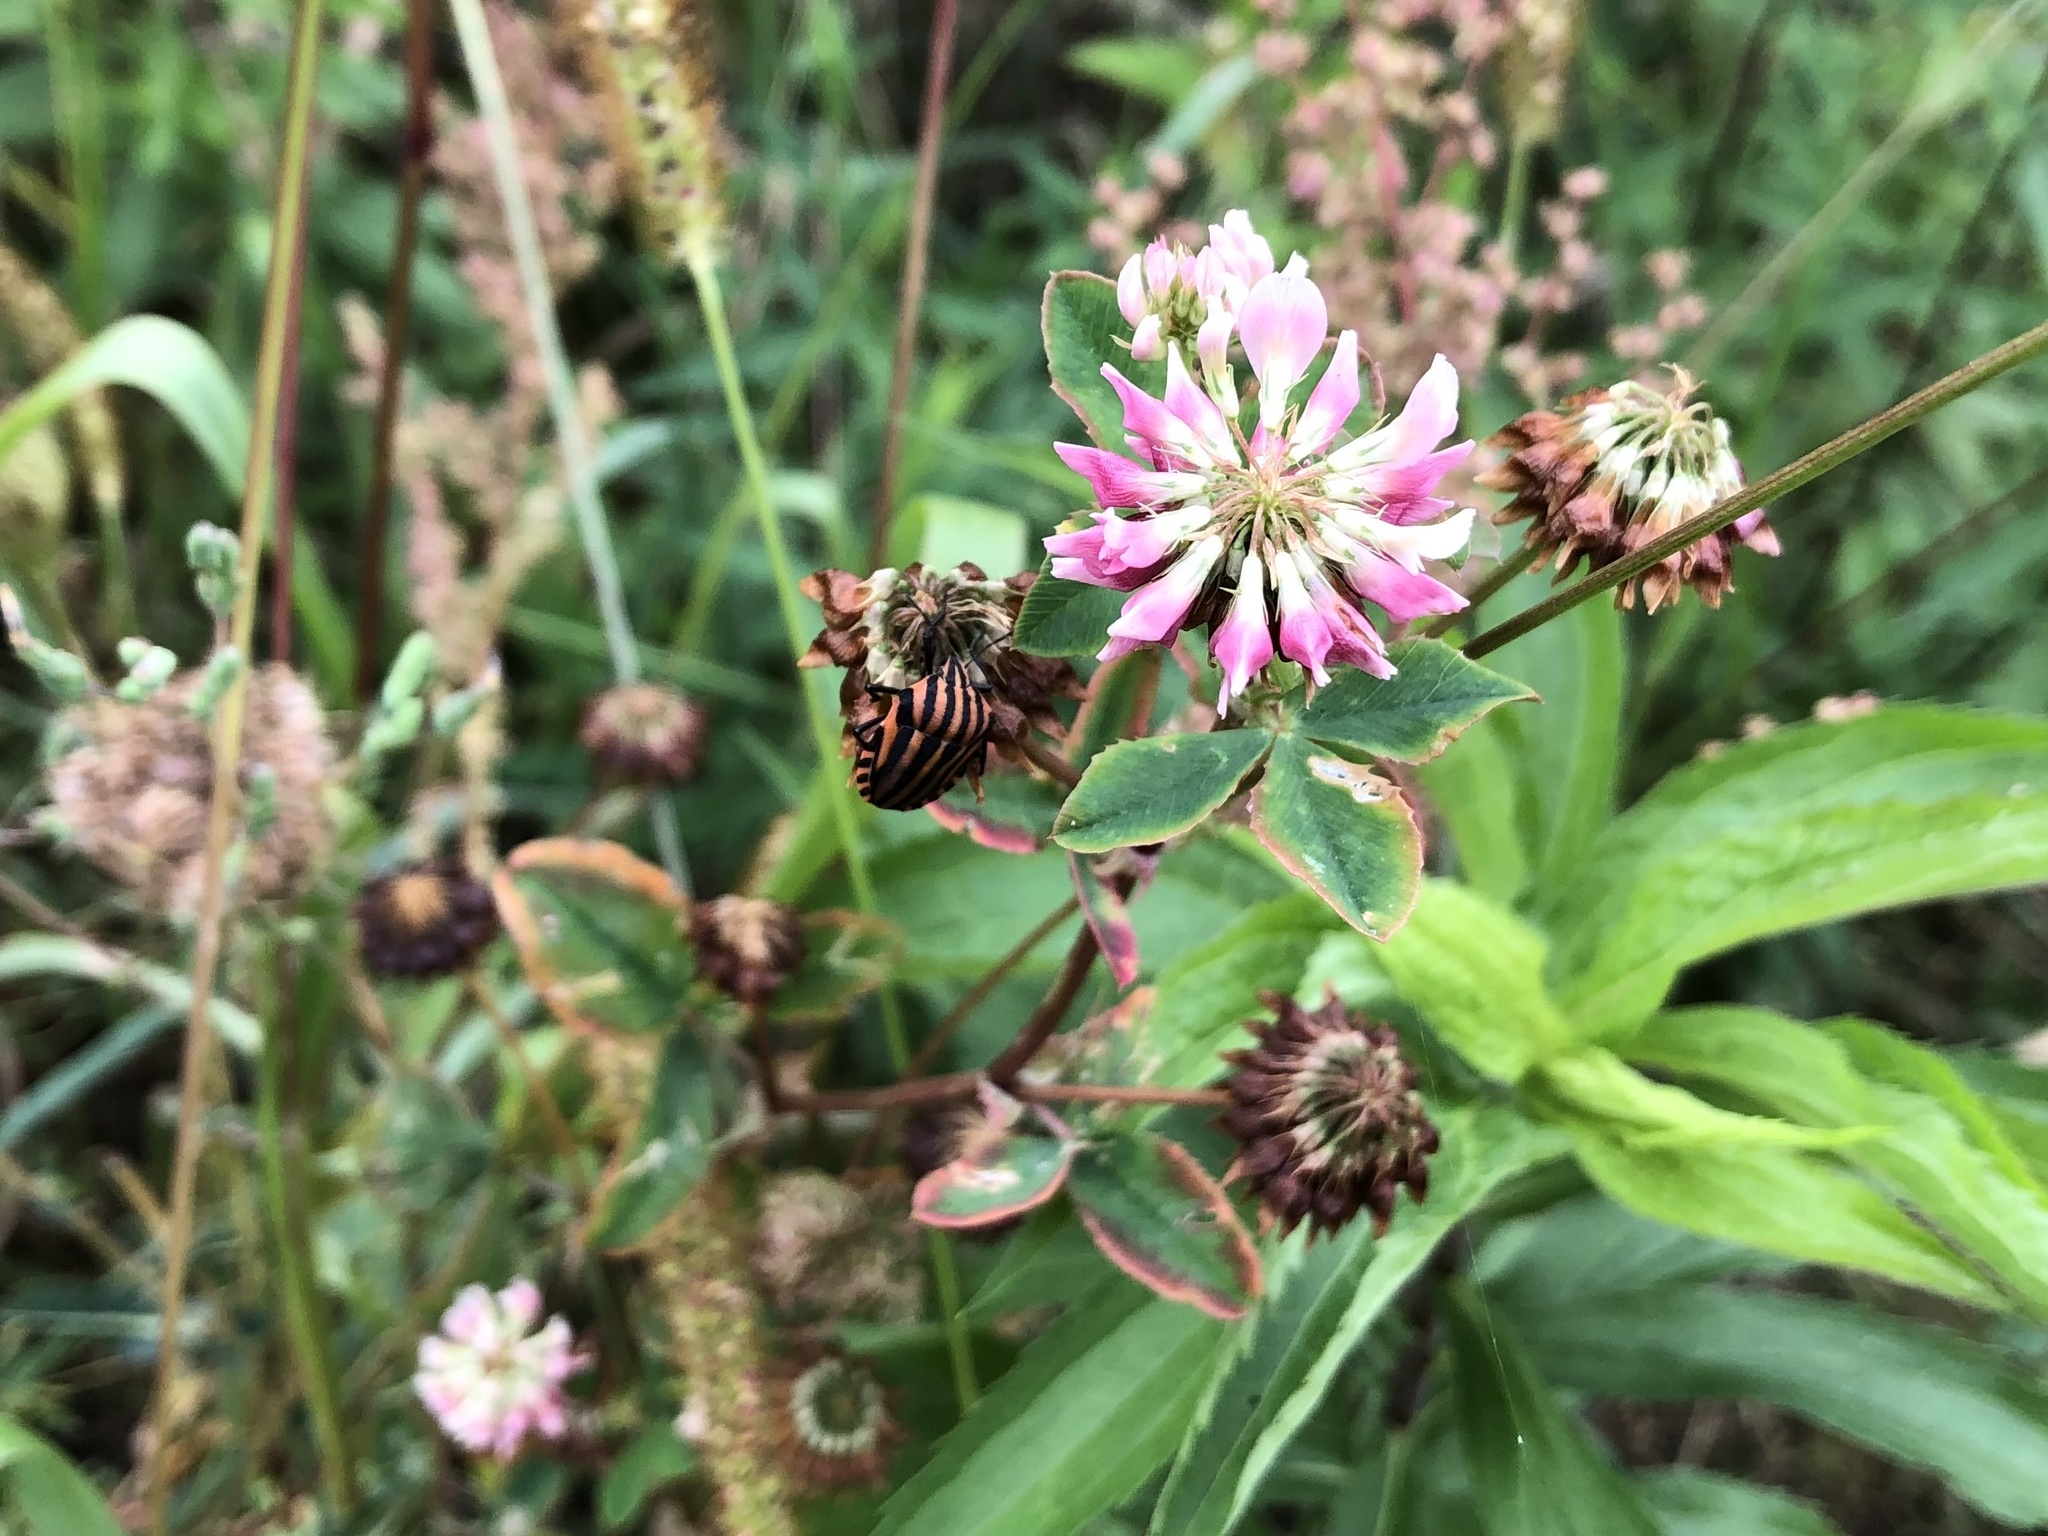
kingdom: Plantae
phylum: Tracheophyta
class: Magnoliopsida
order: Fabales
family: Fabaceae
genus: Trifolium
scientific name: Trifolium hybridum
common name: Alsike clover
